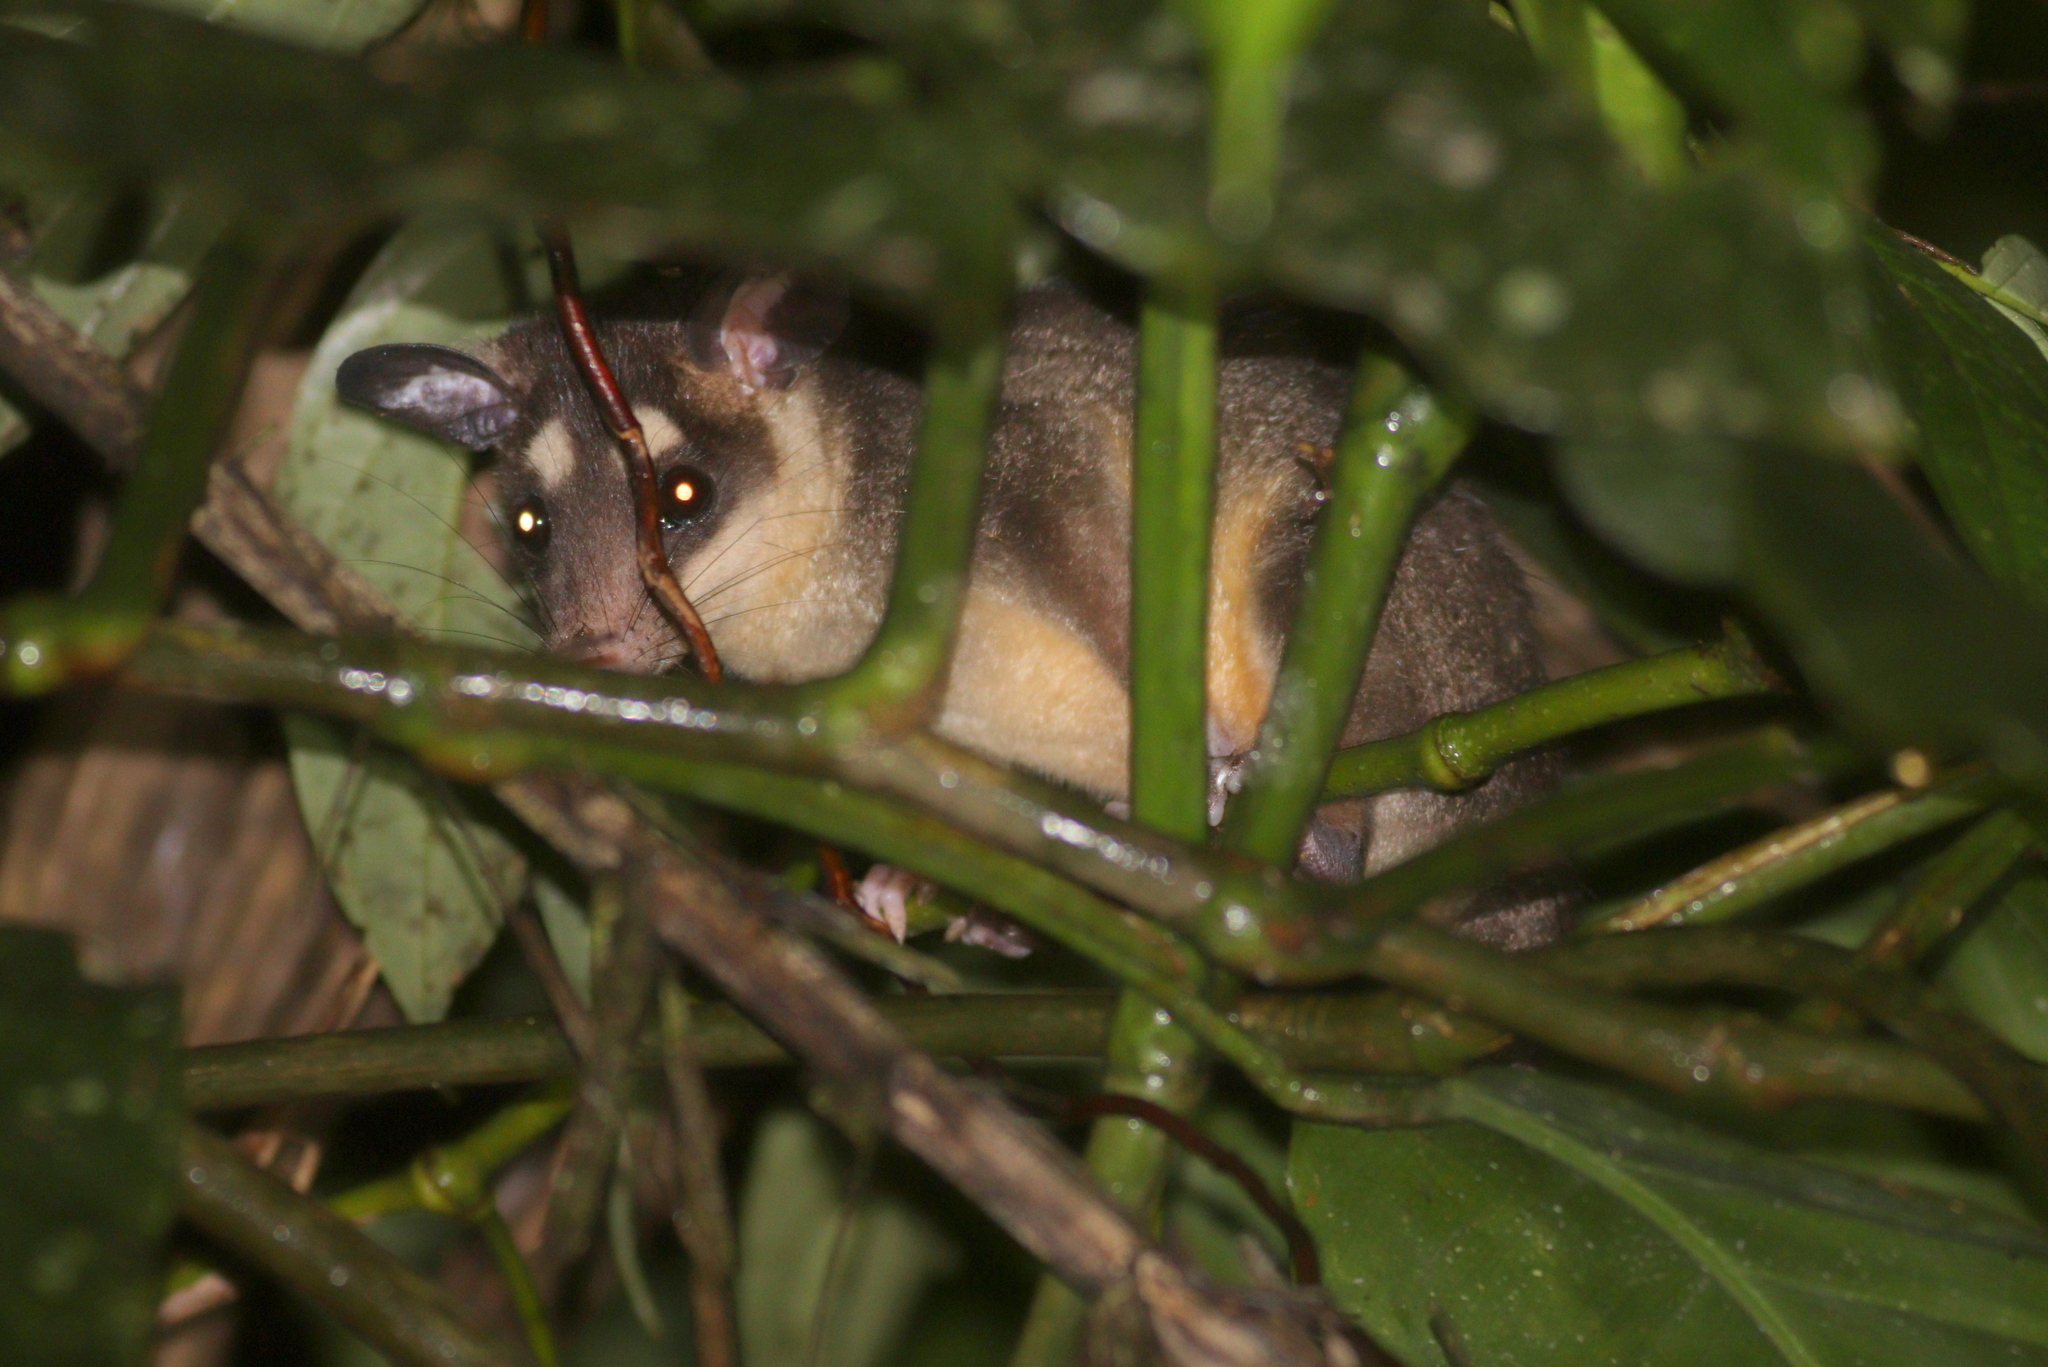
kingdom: Animalia
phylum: Chordata
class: Mammalia
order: Didelphimorphia
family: Didelphidae
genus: Philander
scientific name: Philander andersoni
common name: Anderson's four-eyed opossum
